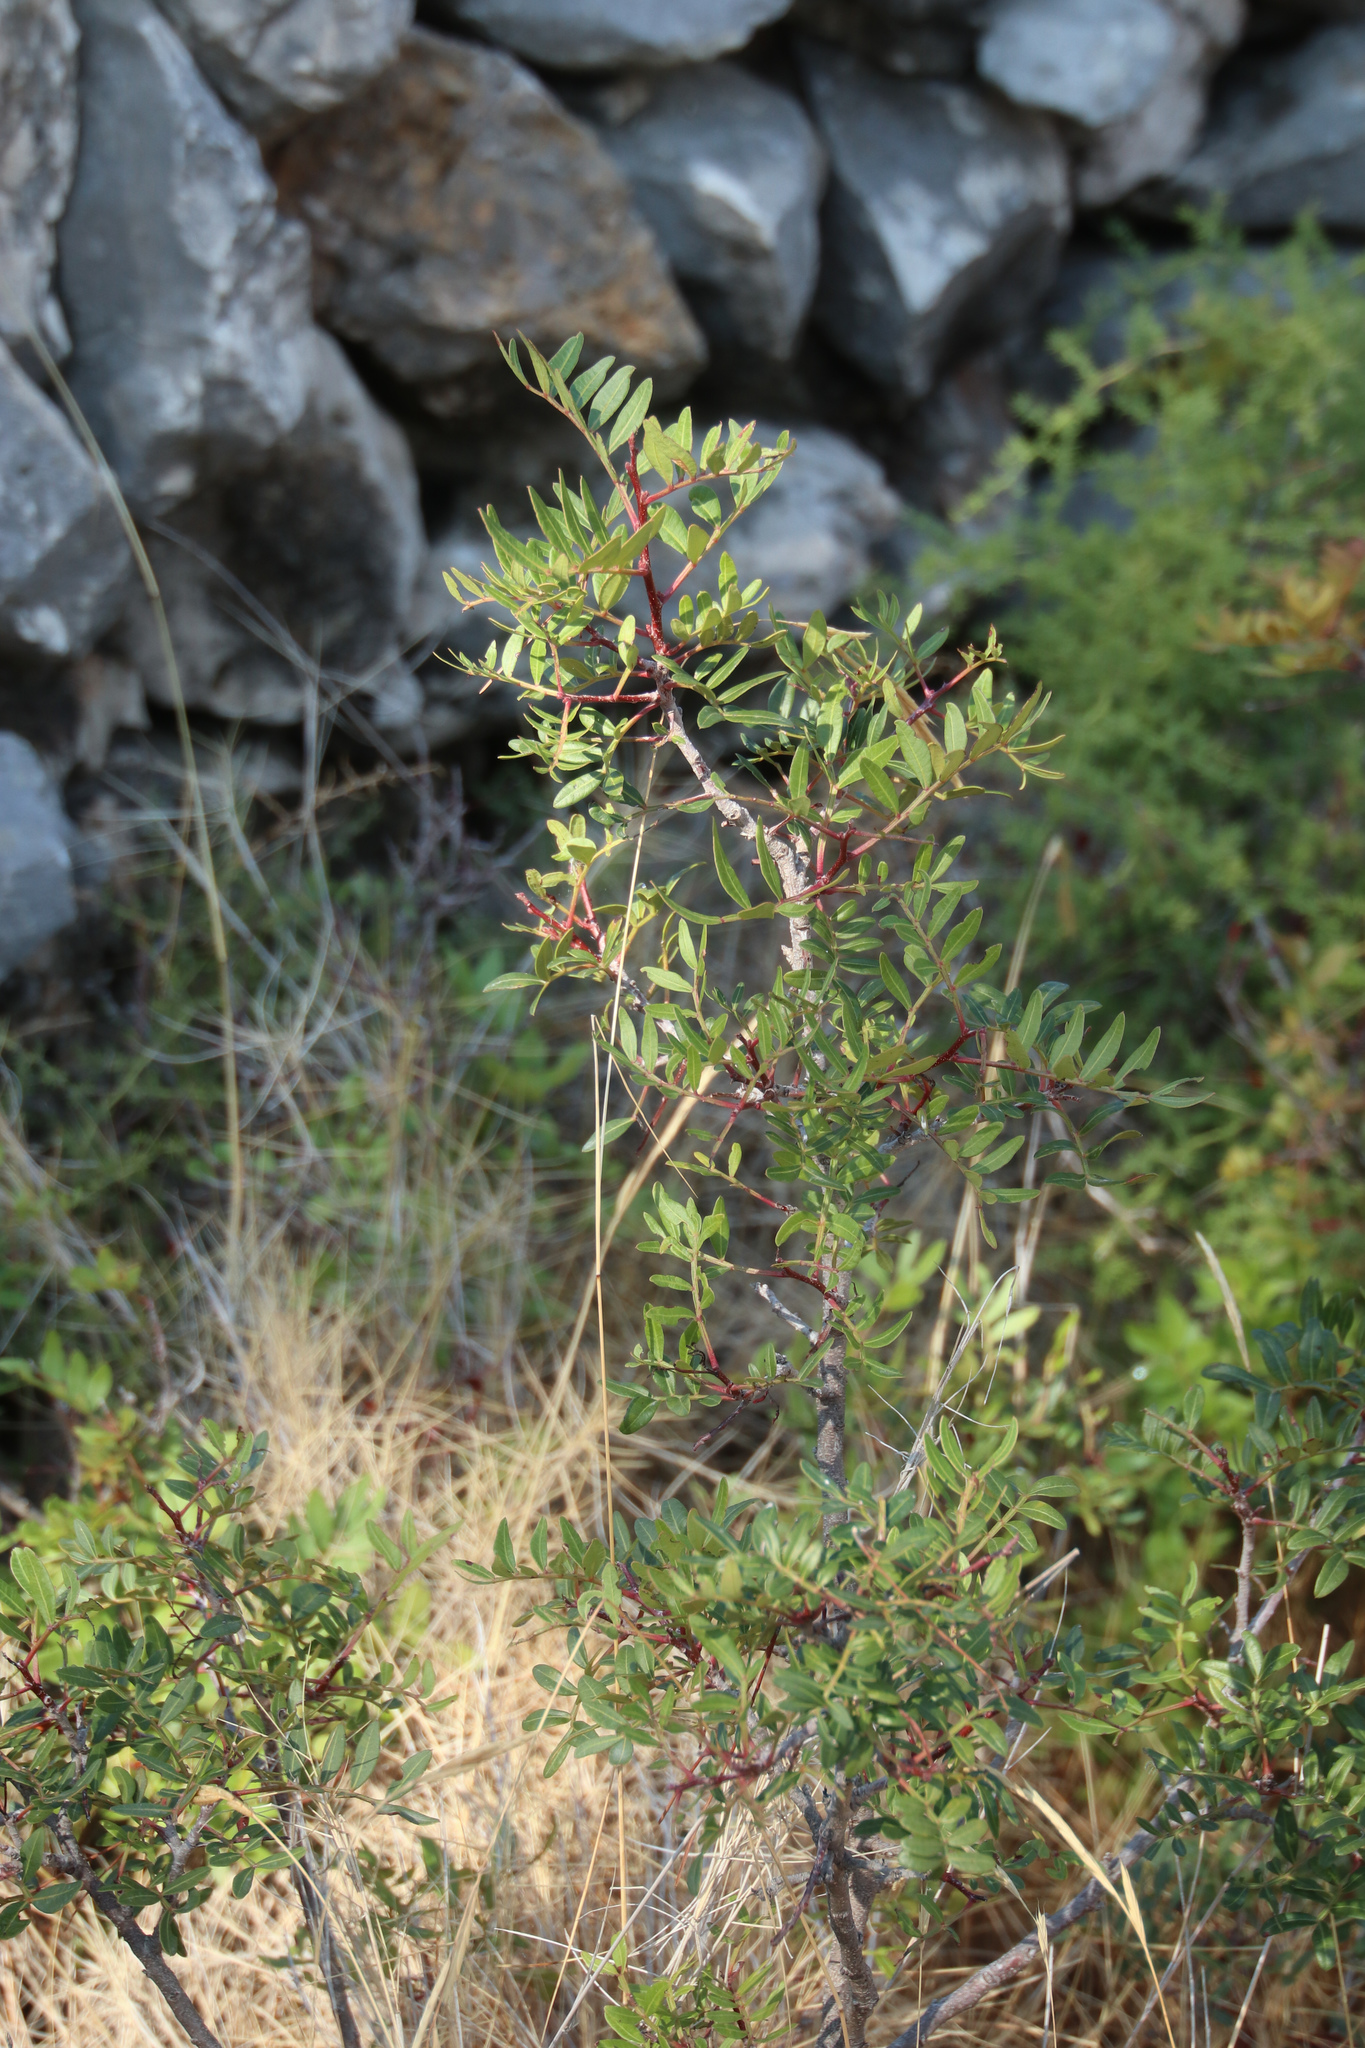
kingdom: Plantae
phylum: Tracheophyta
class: Magnoliopsida
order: Sapindales
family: Anacardiaceae
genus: Pistacia
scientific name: Pistacia lentiscus
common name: Lentisk
